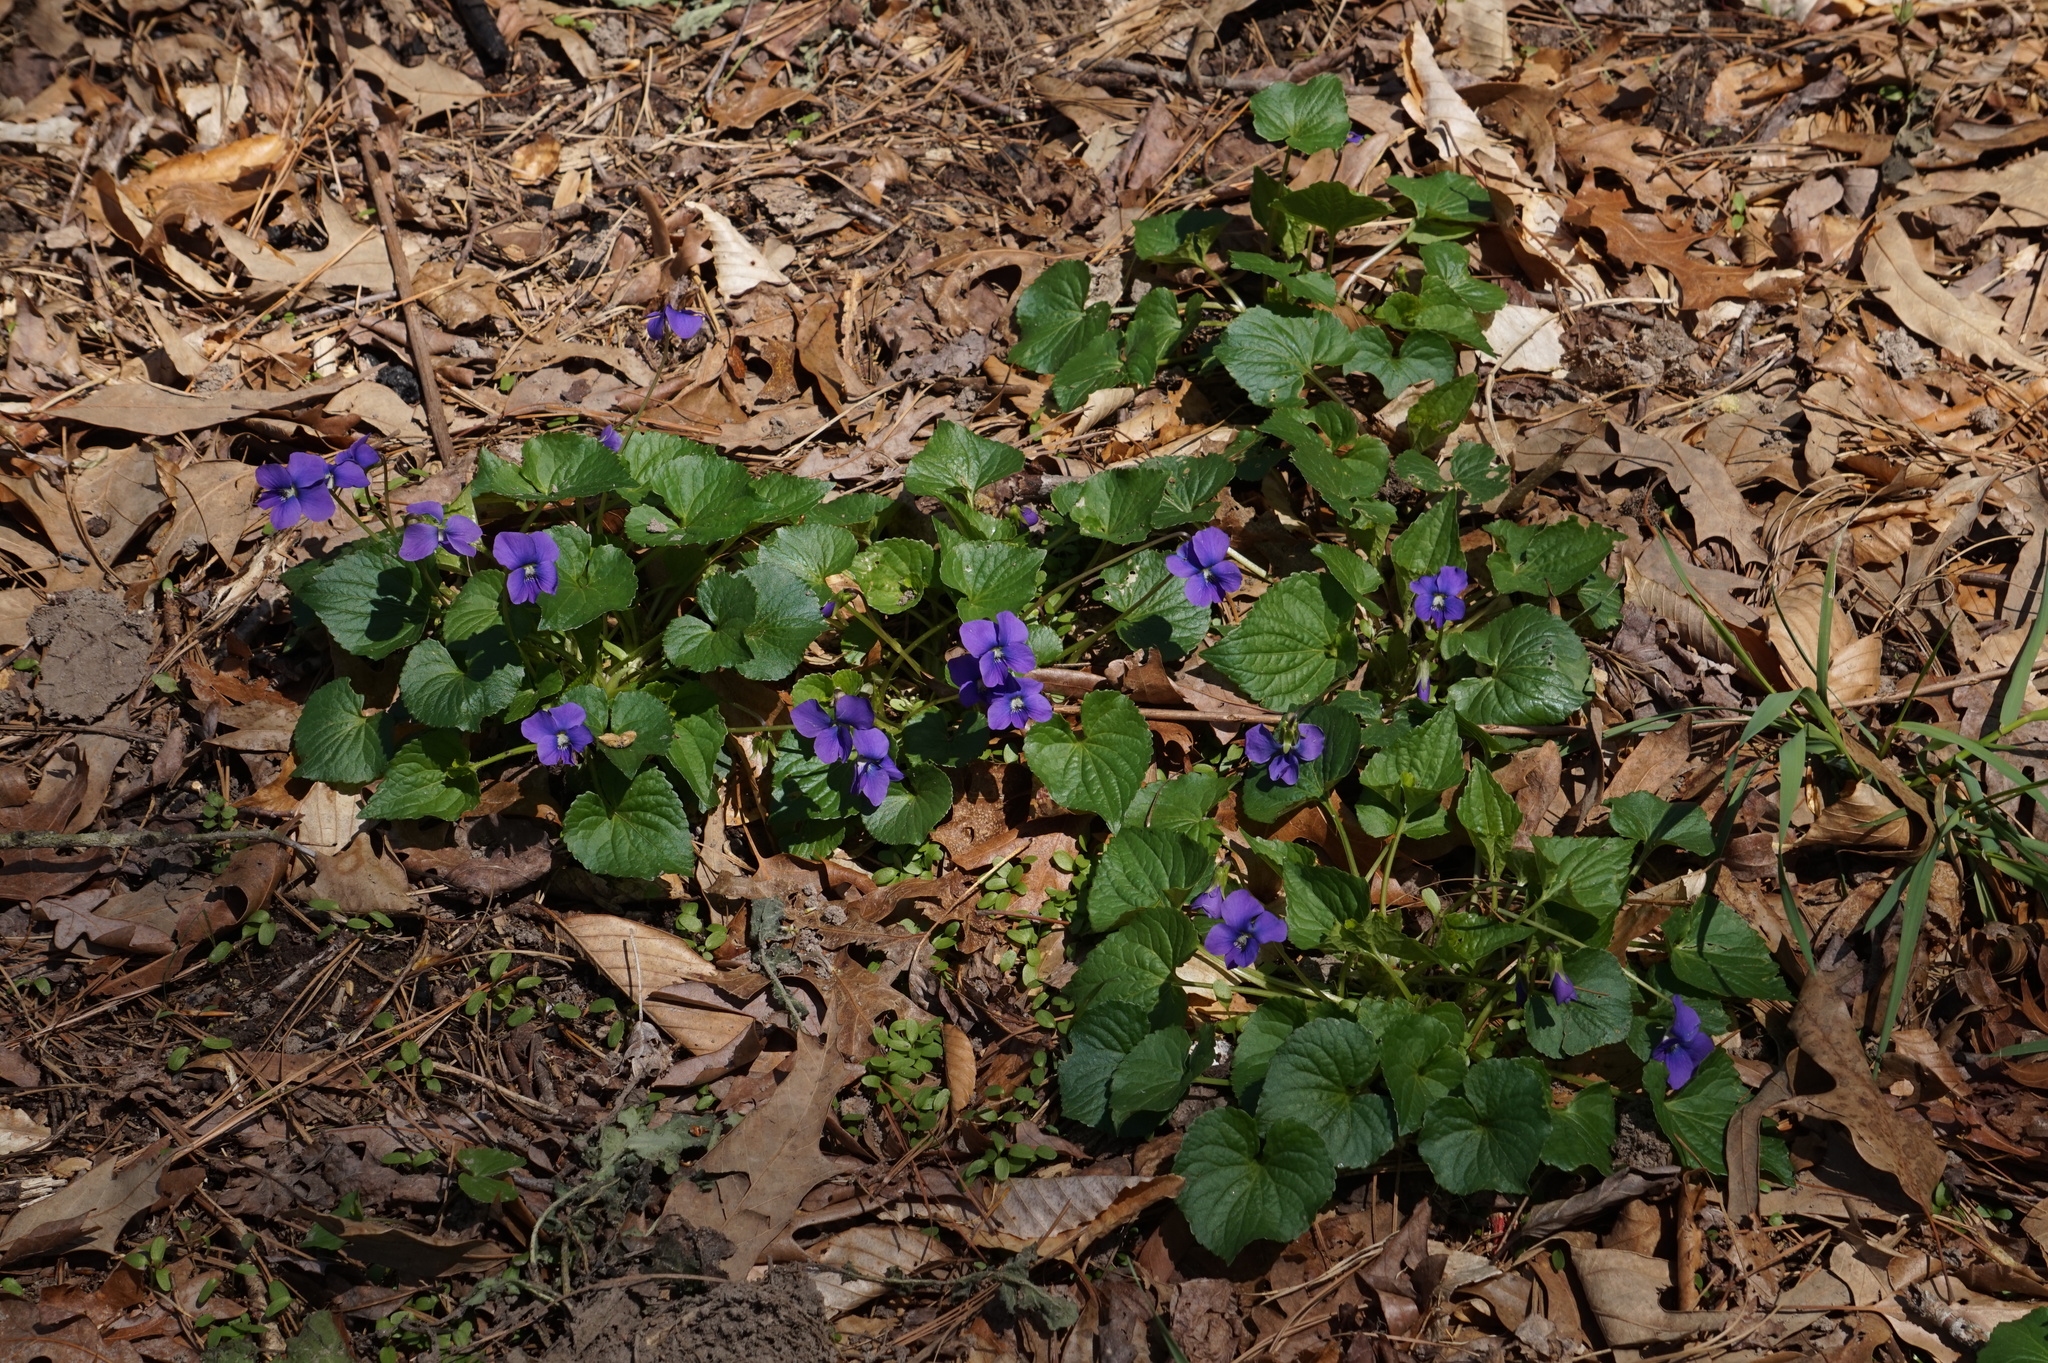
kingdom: Plantae
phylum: Tracheophyta
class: Magnoliopsida
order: Malpighiales
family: Violaceae
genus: Viola
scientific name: Viola sororia
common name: Dooryard violet
